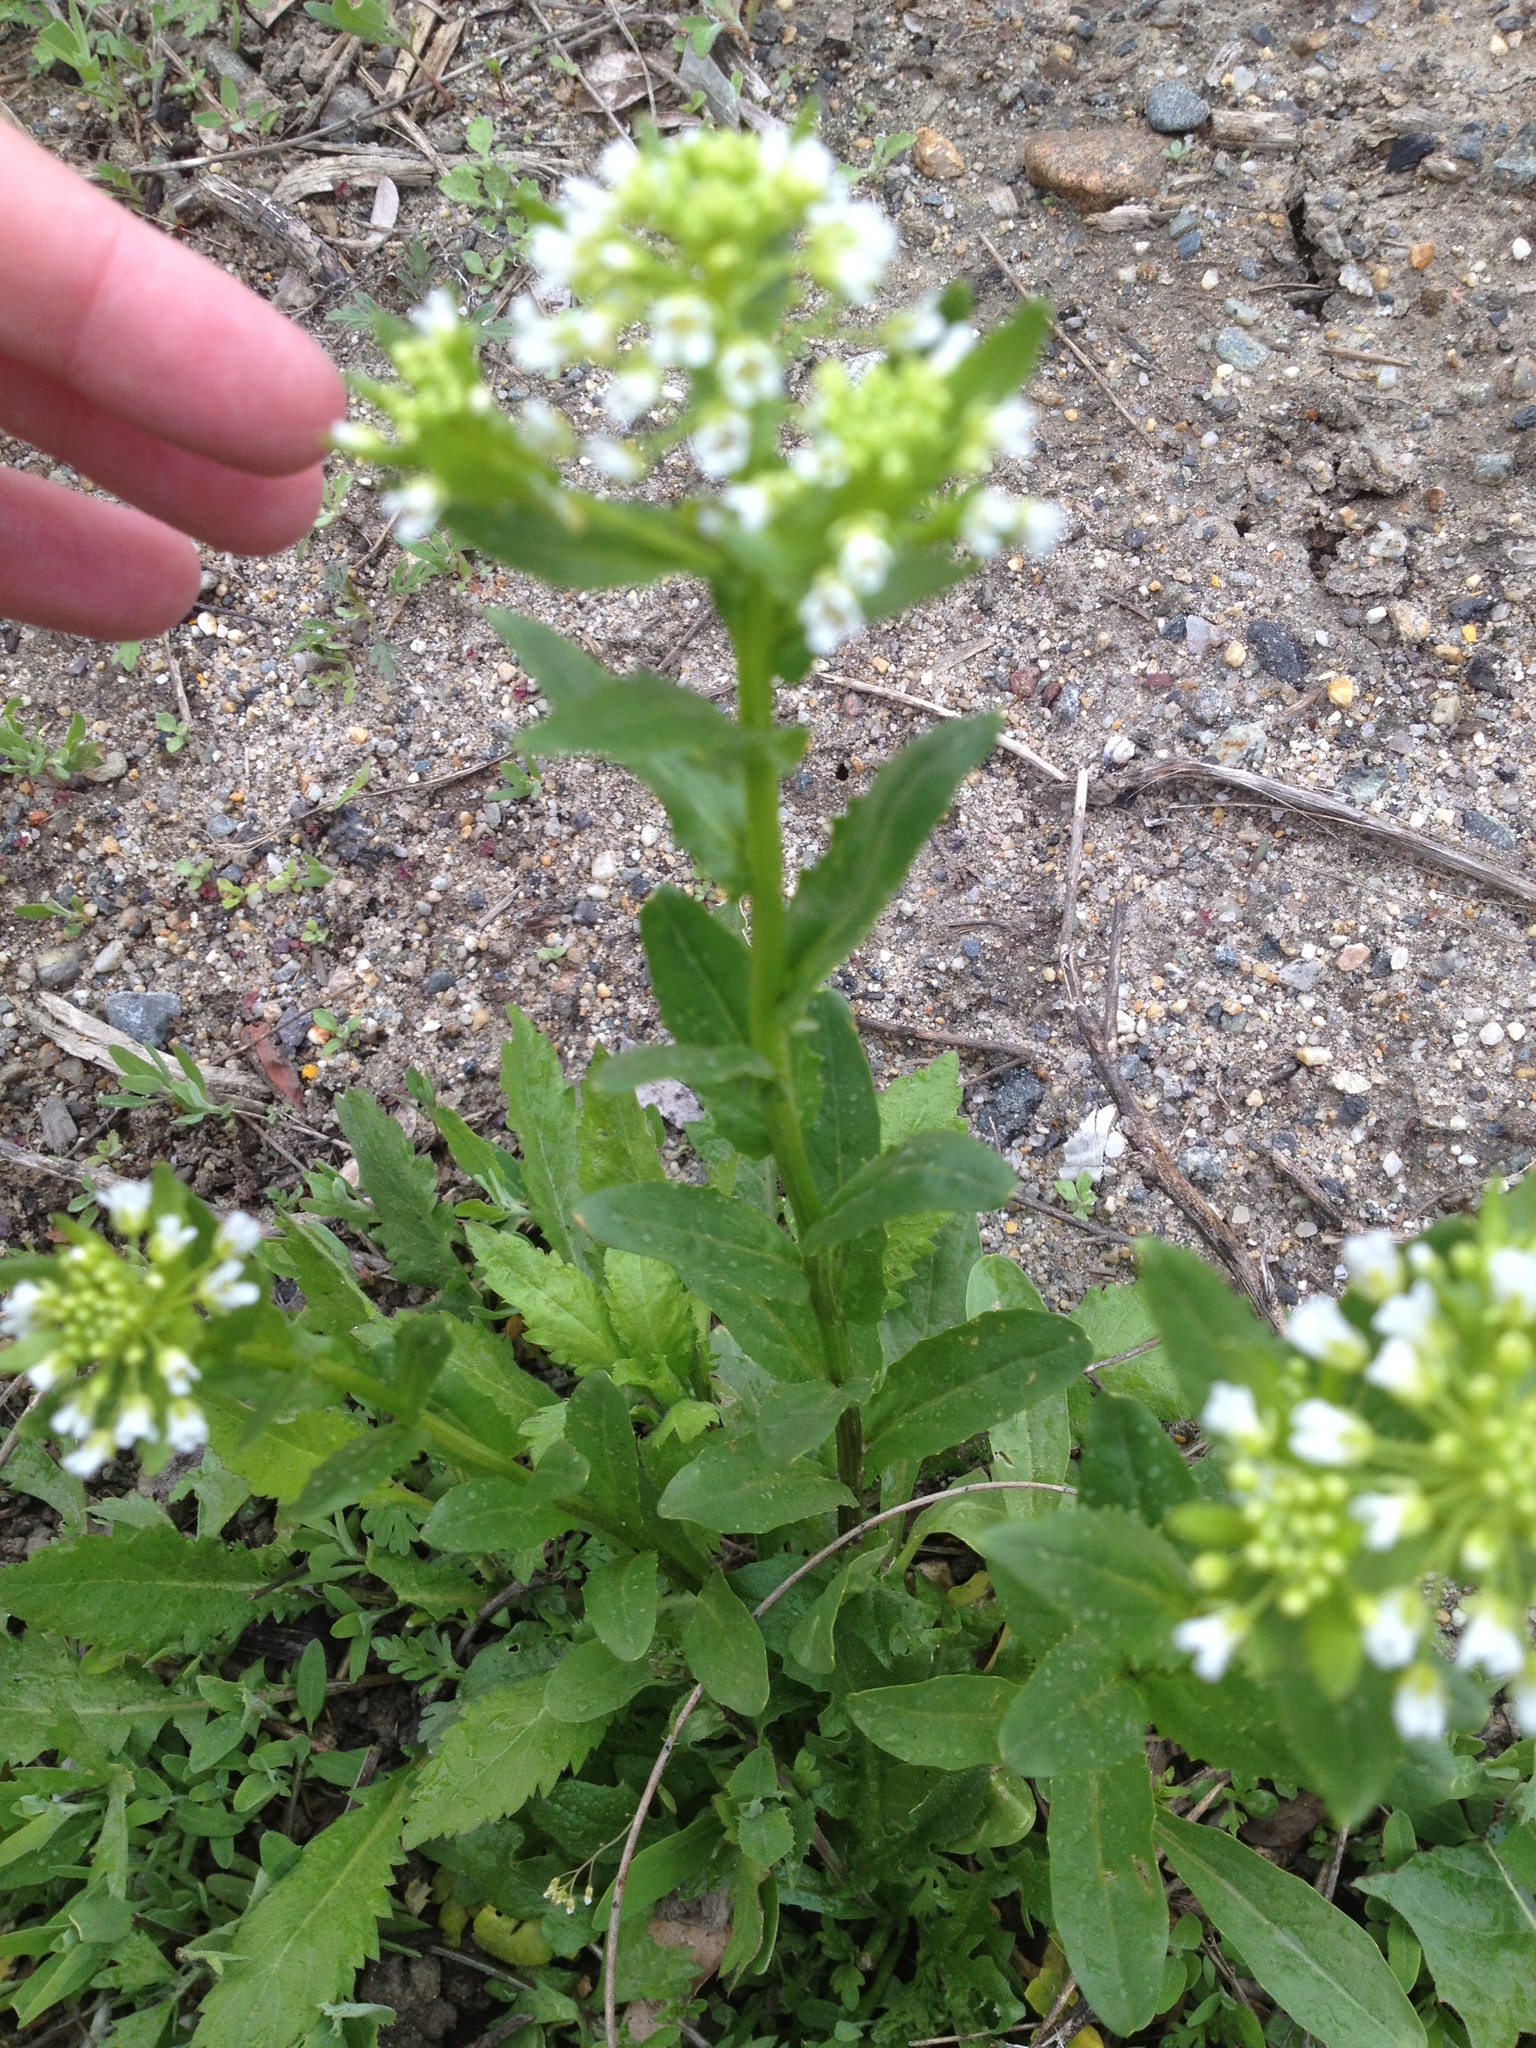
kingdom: Plantae
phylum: Tracheophyta
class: Magnoliopsida
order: Brassicales
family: Brassicaceae
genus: Thlaspi
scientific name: Thlaspi arvense
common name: Field pennycress
